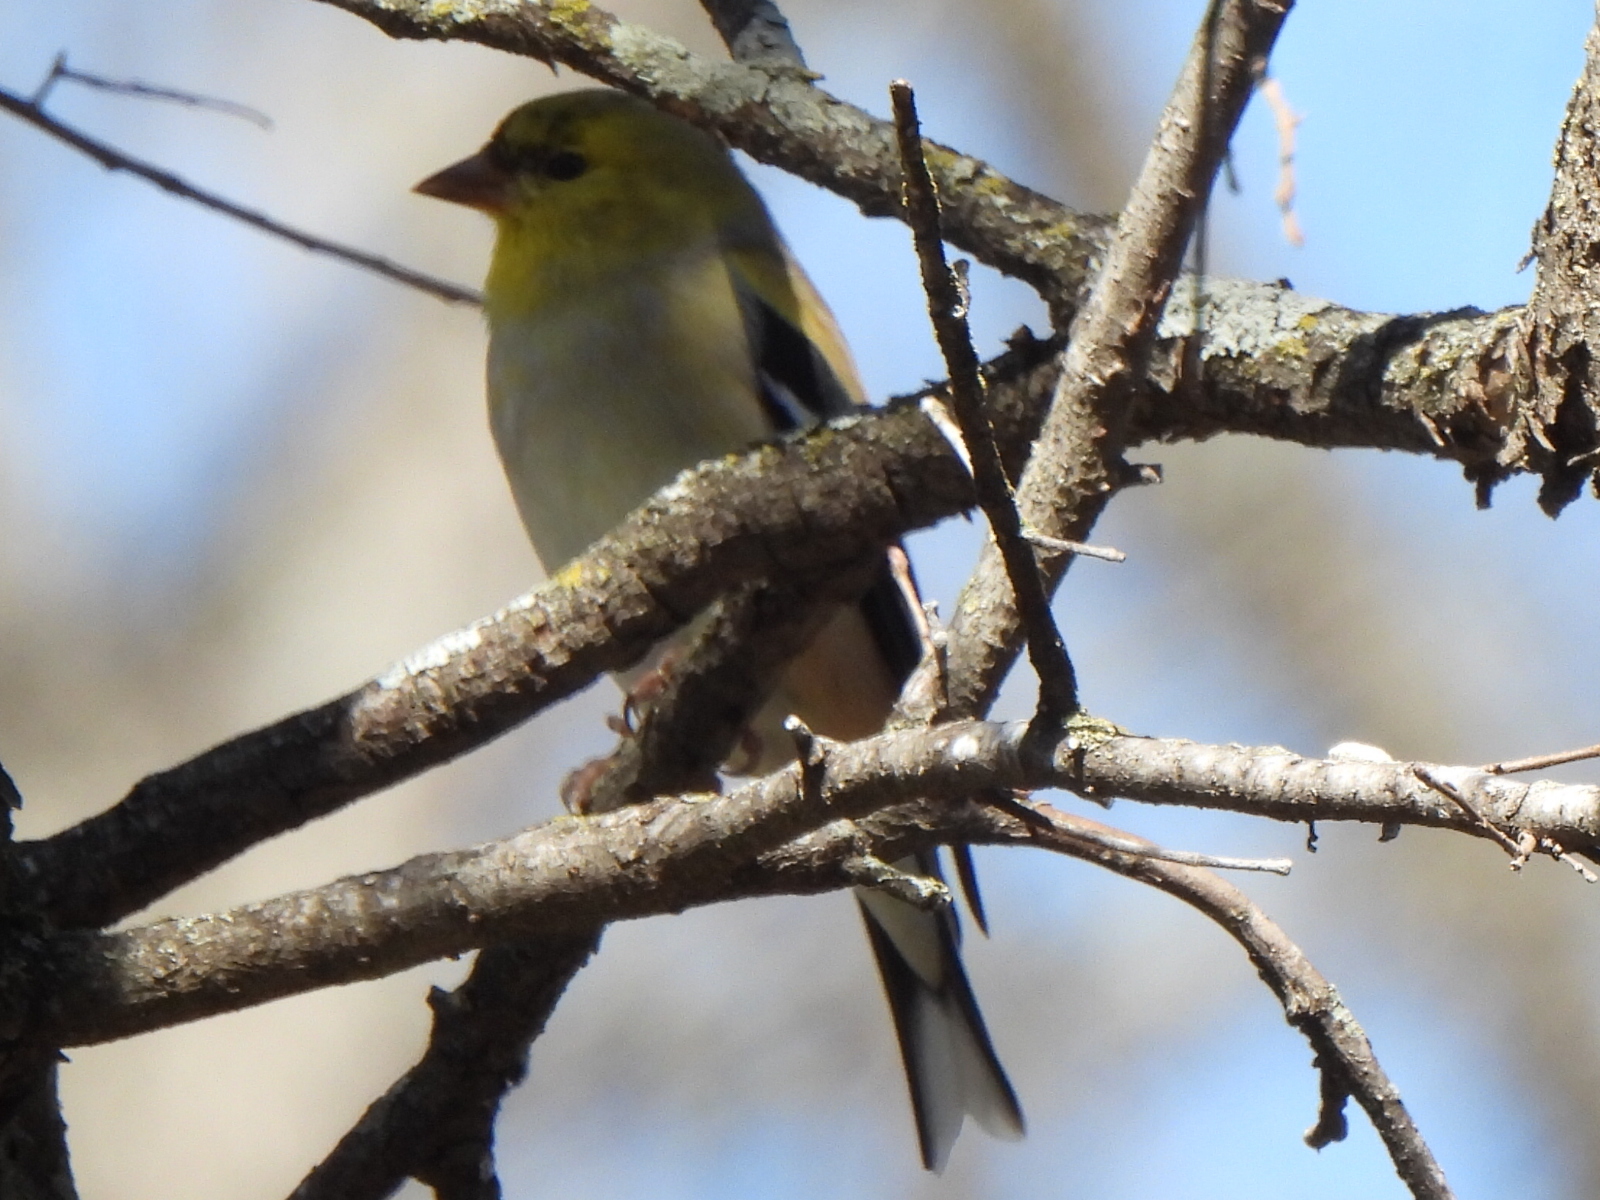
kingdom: Animalia
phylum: Chordata
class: Aves
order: Passeriformes
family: Fringillidae
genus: Spinus
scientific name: Spinus tristis
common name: American goldfinch
